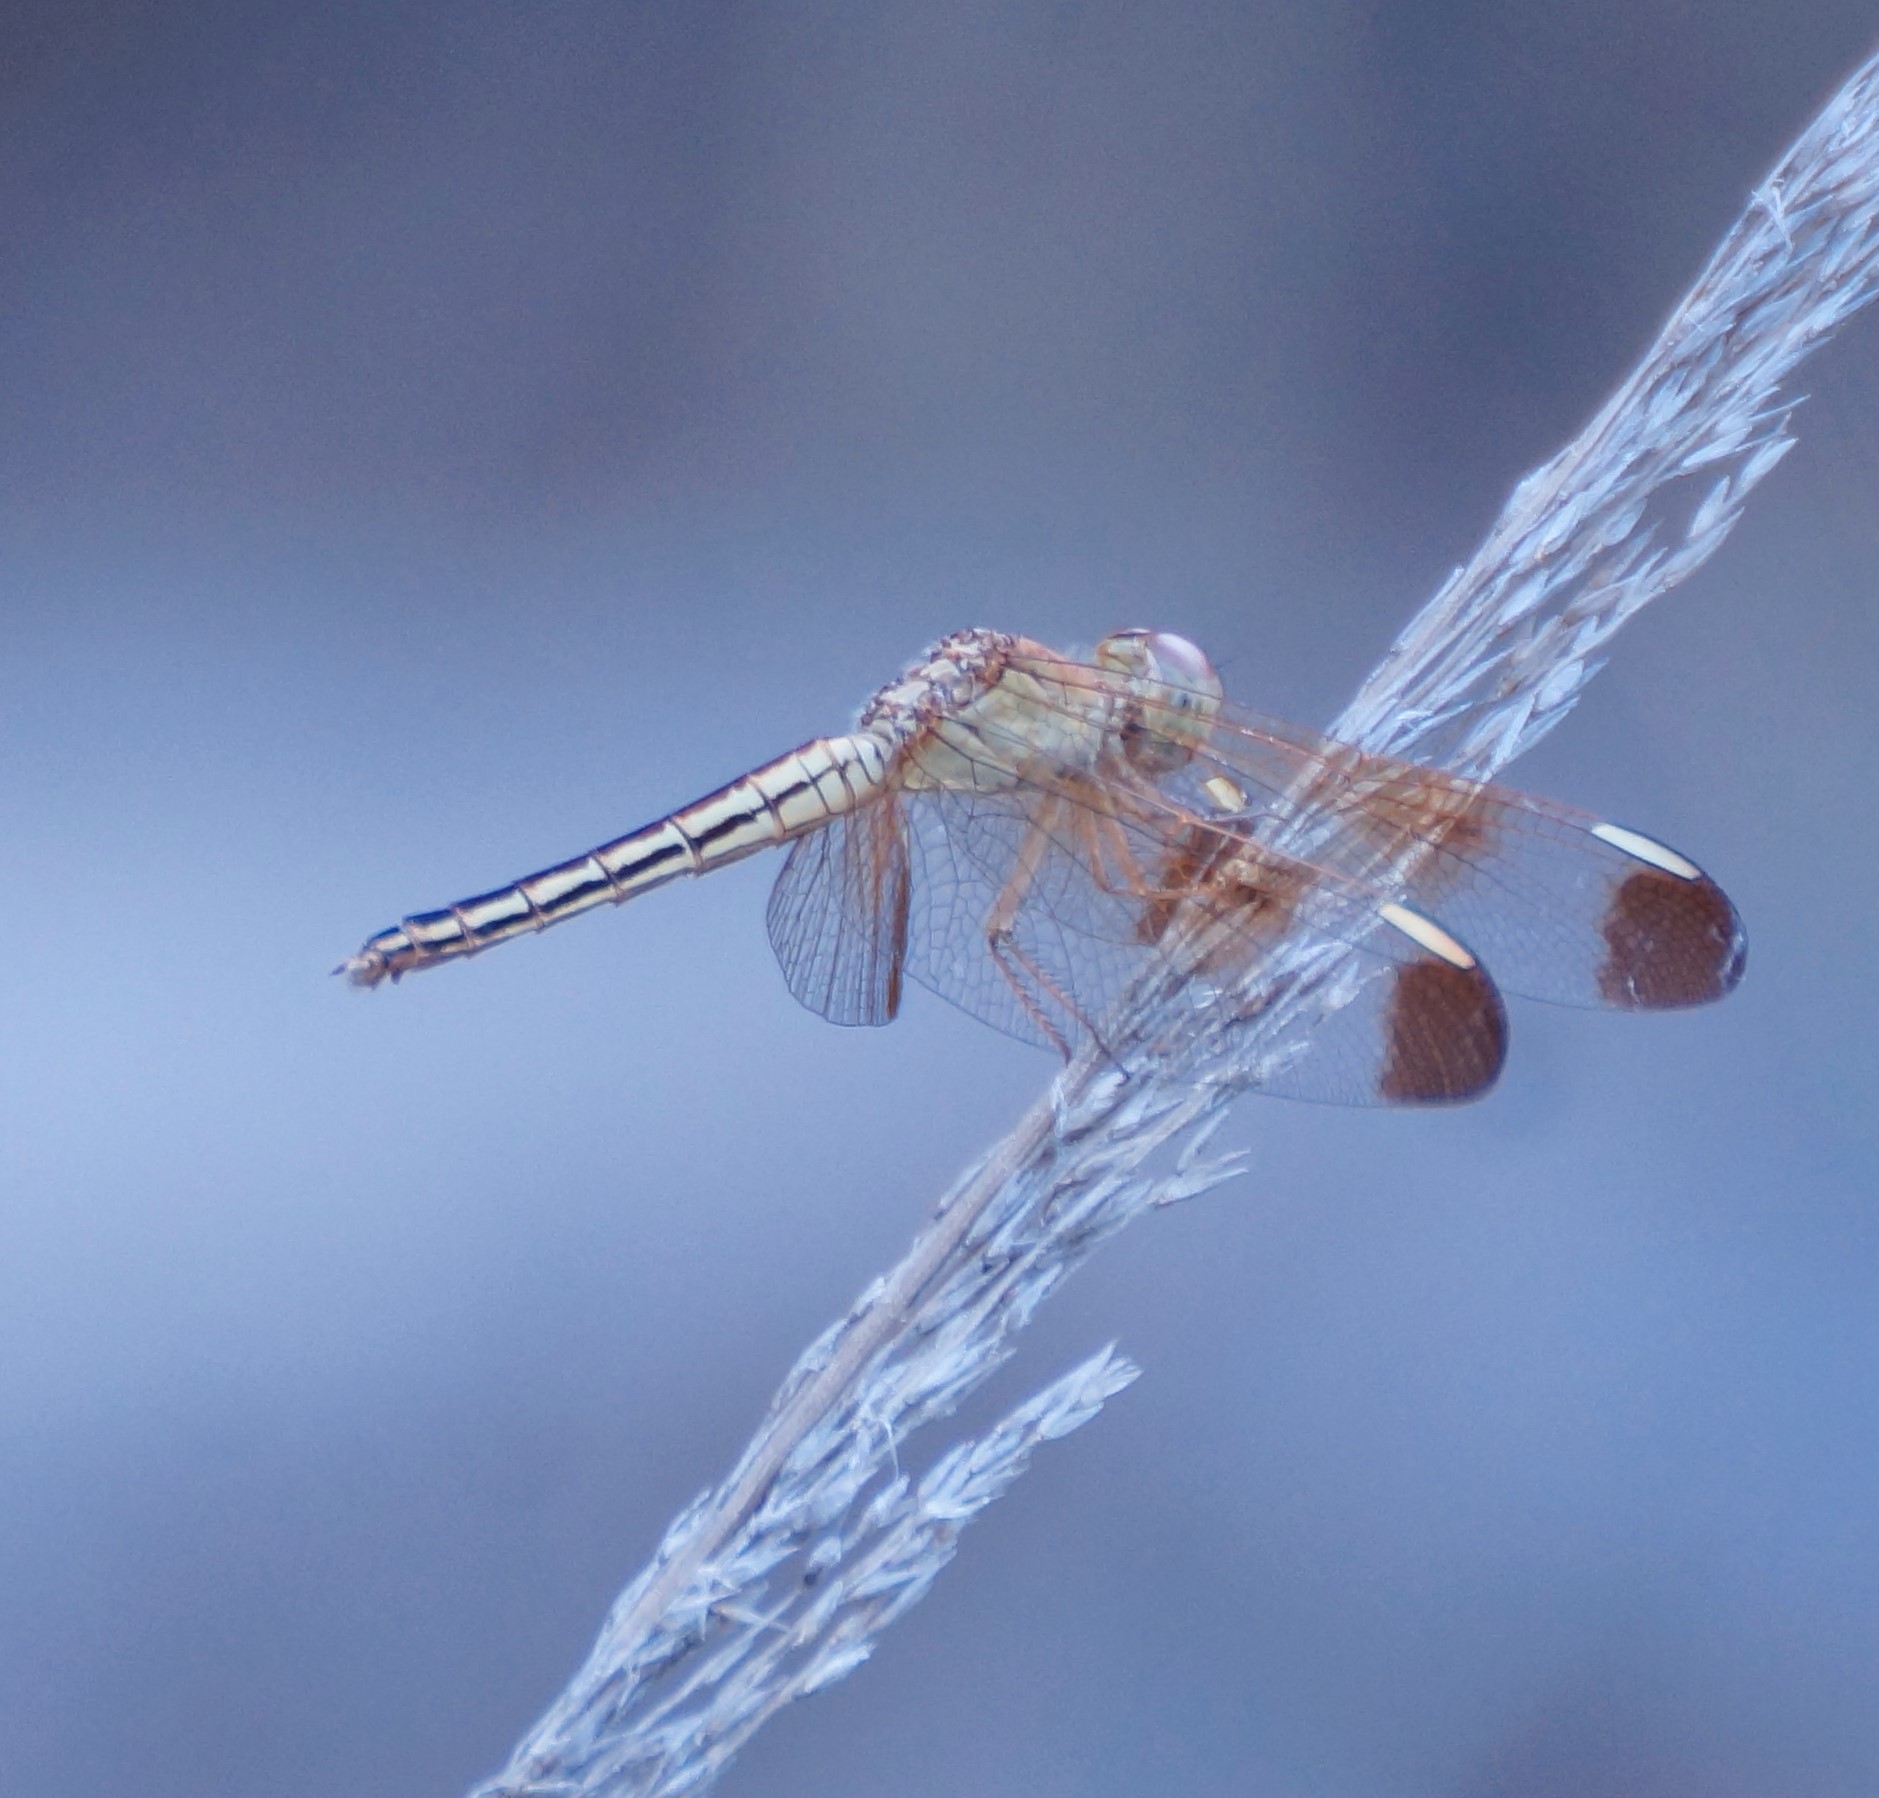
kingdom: Animalia
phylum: Arthropoda
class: Insecta
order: Odonata
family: Libellulidae
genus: Neurothemis
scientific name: Neurothemis stigmatizans
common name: Painted grasshawk
